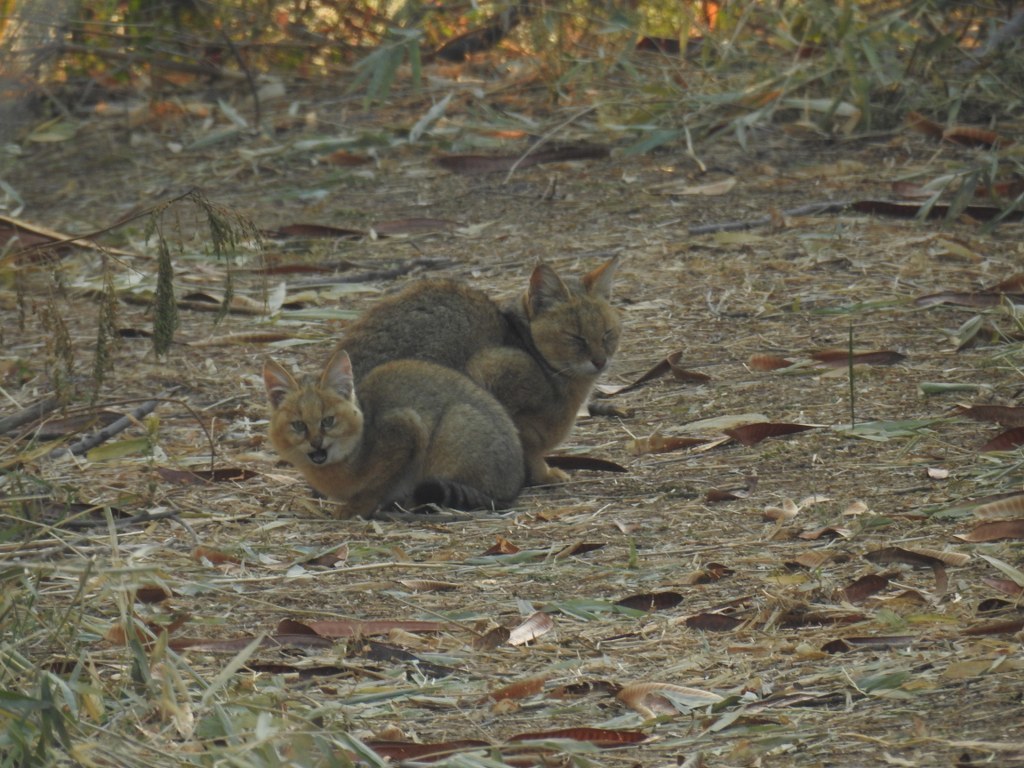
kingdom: Animalia
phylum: Chordata
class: Mammalia
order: Carnivora
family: Felidae
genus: Felis
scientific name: Felis chaus
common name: Jungle cat
